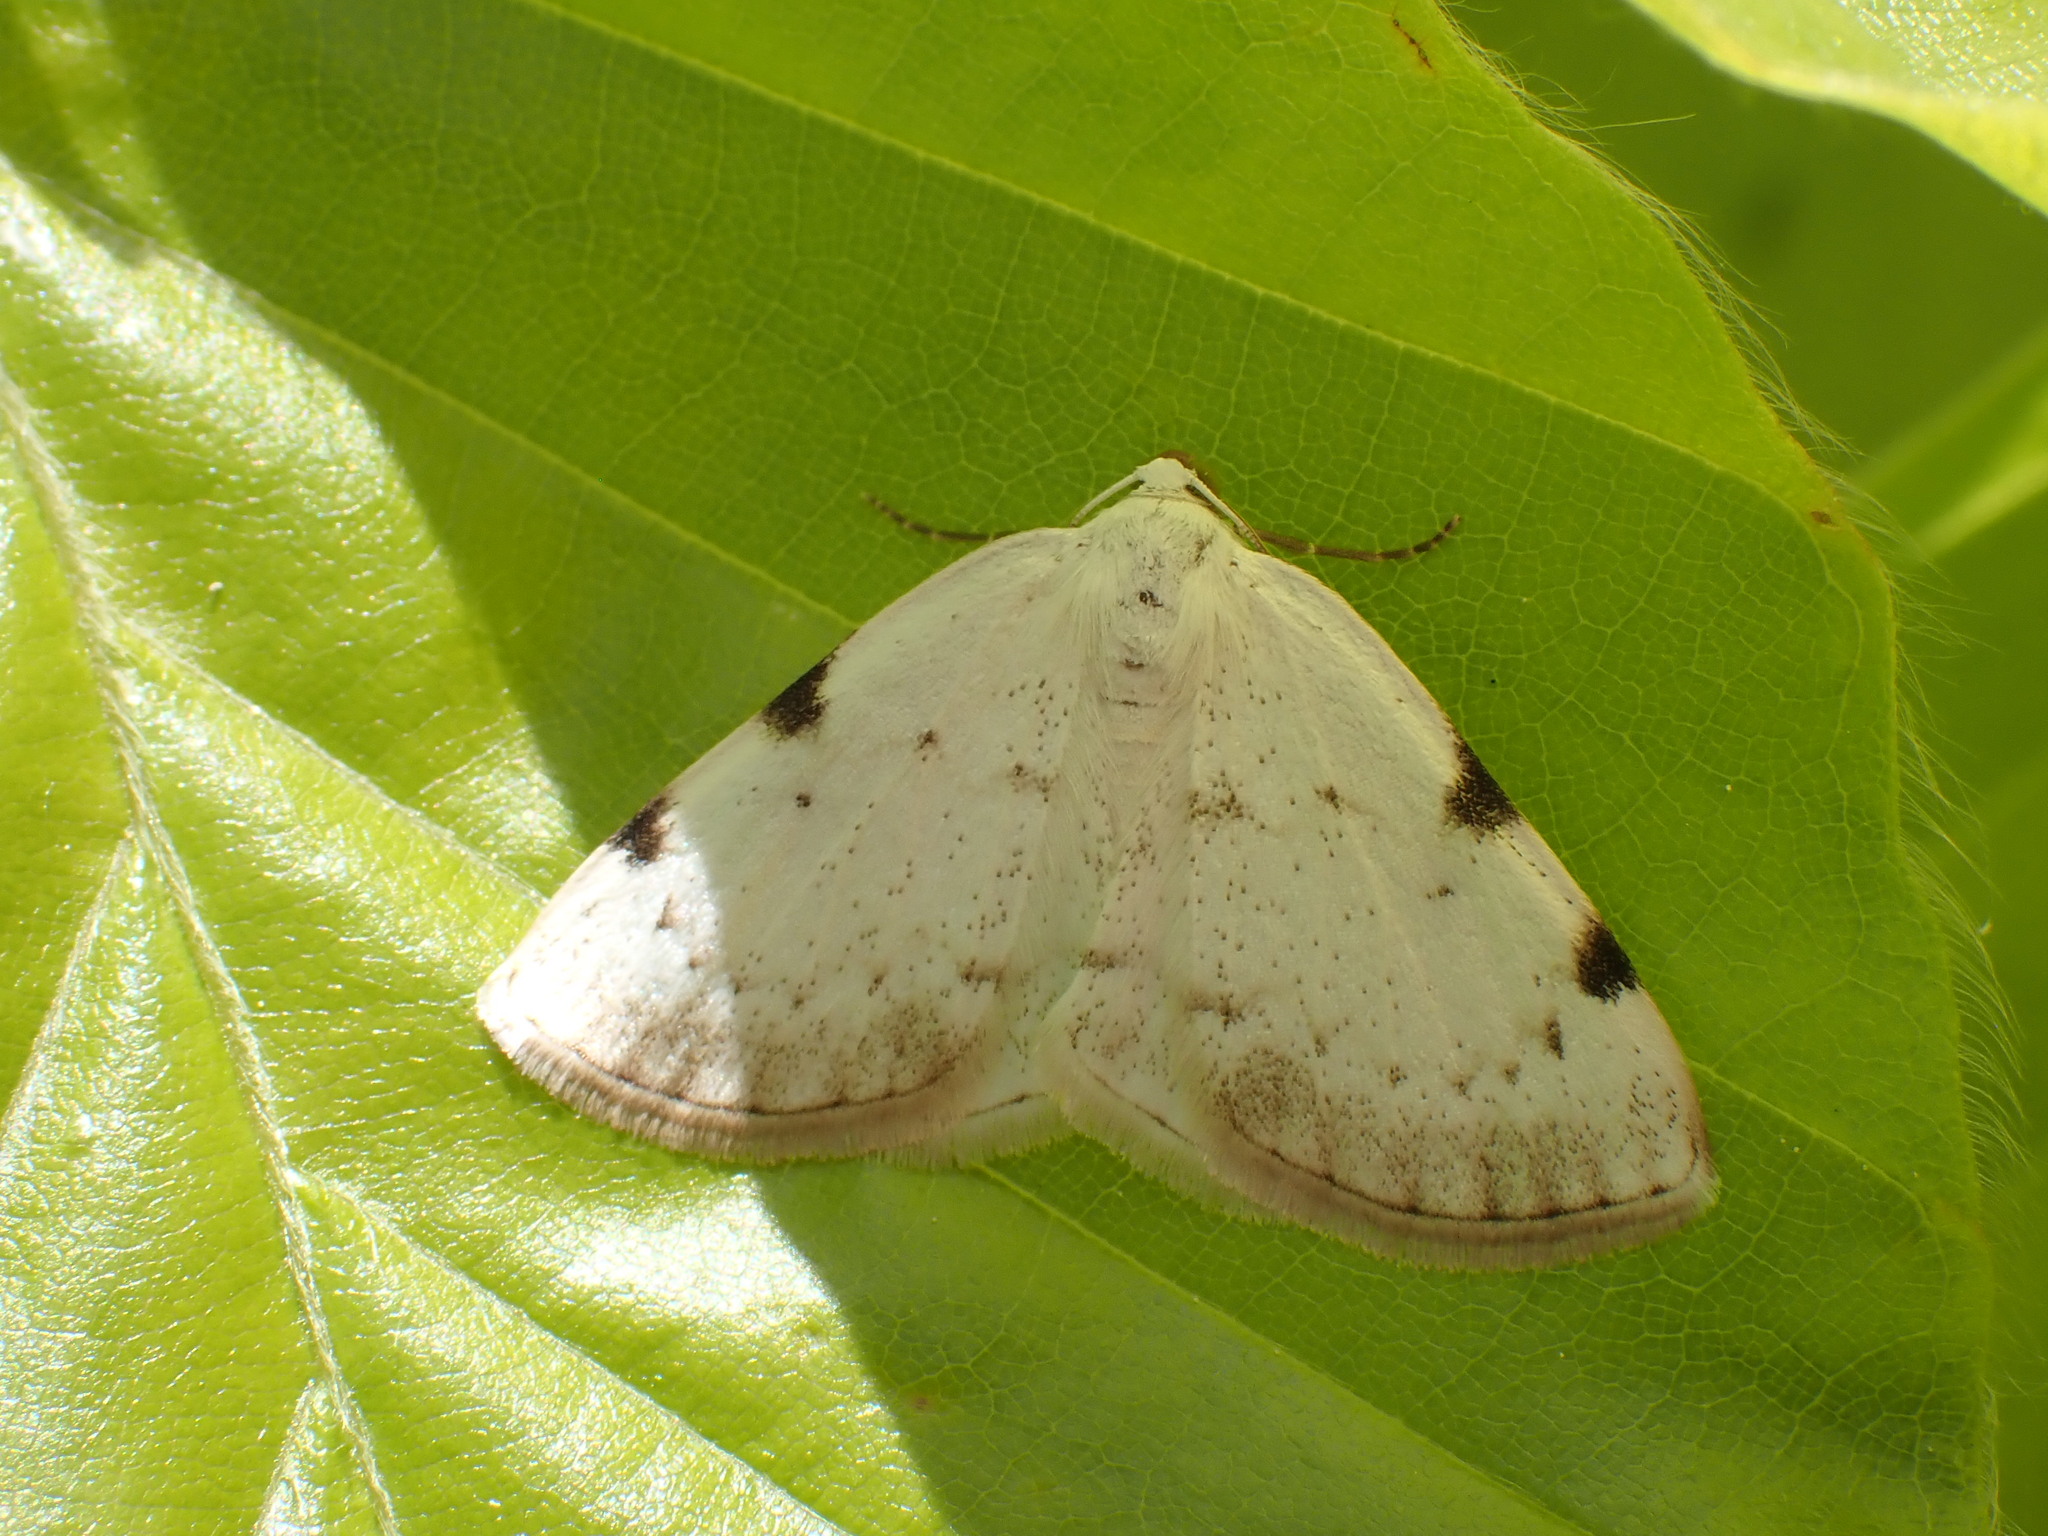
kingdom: Animalia
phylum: Arthropoda
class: Insecta
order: Lepidoptera
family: Geometridae
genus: Lomographa
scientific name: Lomographa bimaculata
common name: White-pinion spotted
